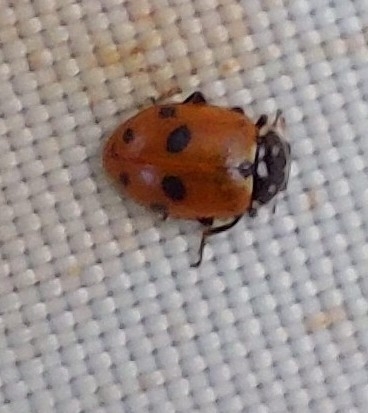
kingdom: Animalia
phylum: Arthropoda
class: Insecta
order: Coleoptera
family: Coccinellidae
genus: Hippodamia
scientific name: Hippodamia variegata
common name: Ladybird beetle
